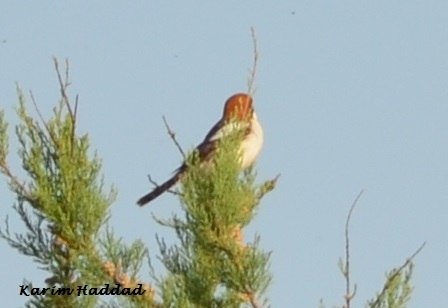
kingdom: Animalia
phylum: Chordata
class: Aves
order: Passeriformes
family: Laniidae
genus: Lanius
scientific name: Lanius senator
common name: Woodchat shrike
